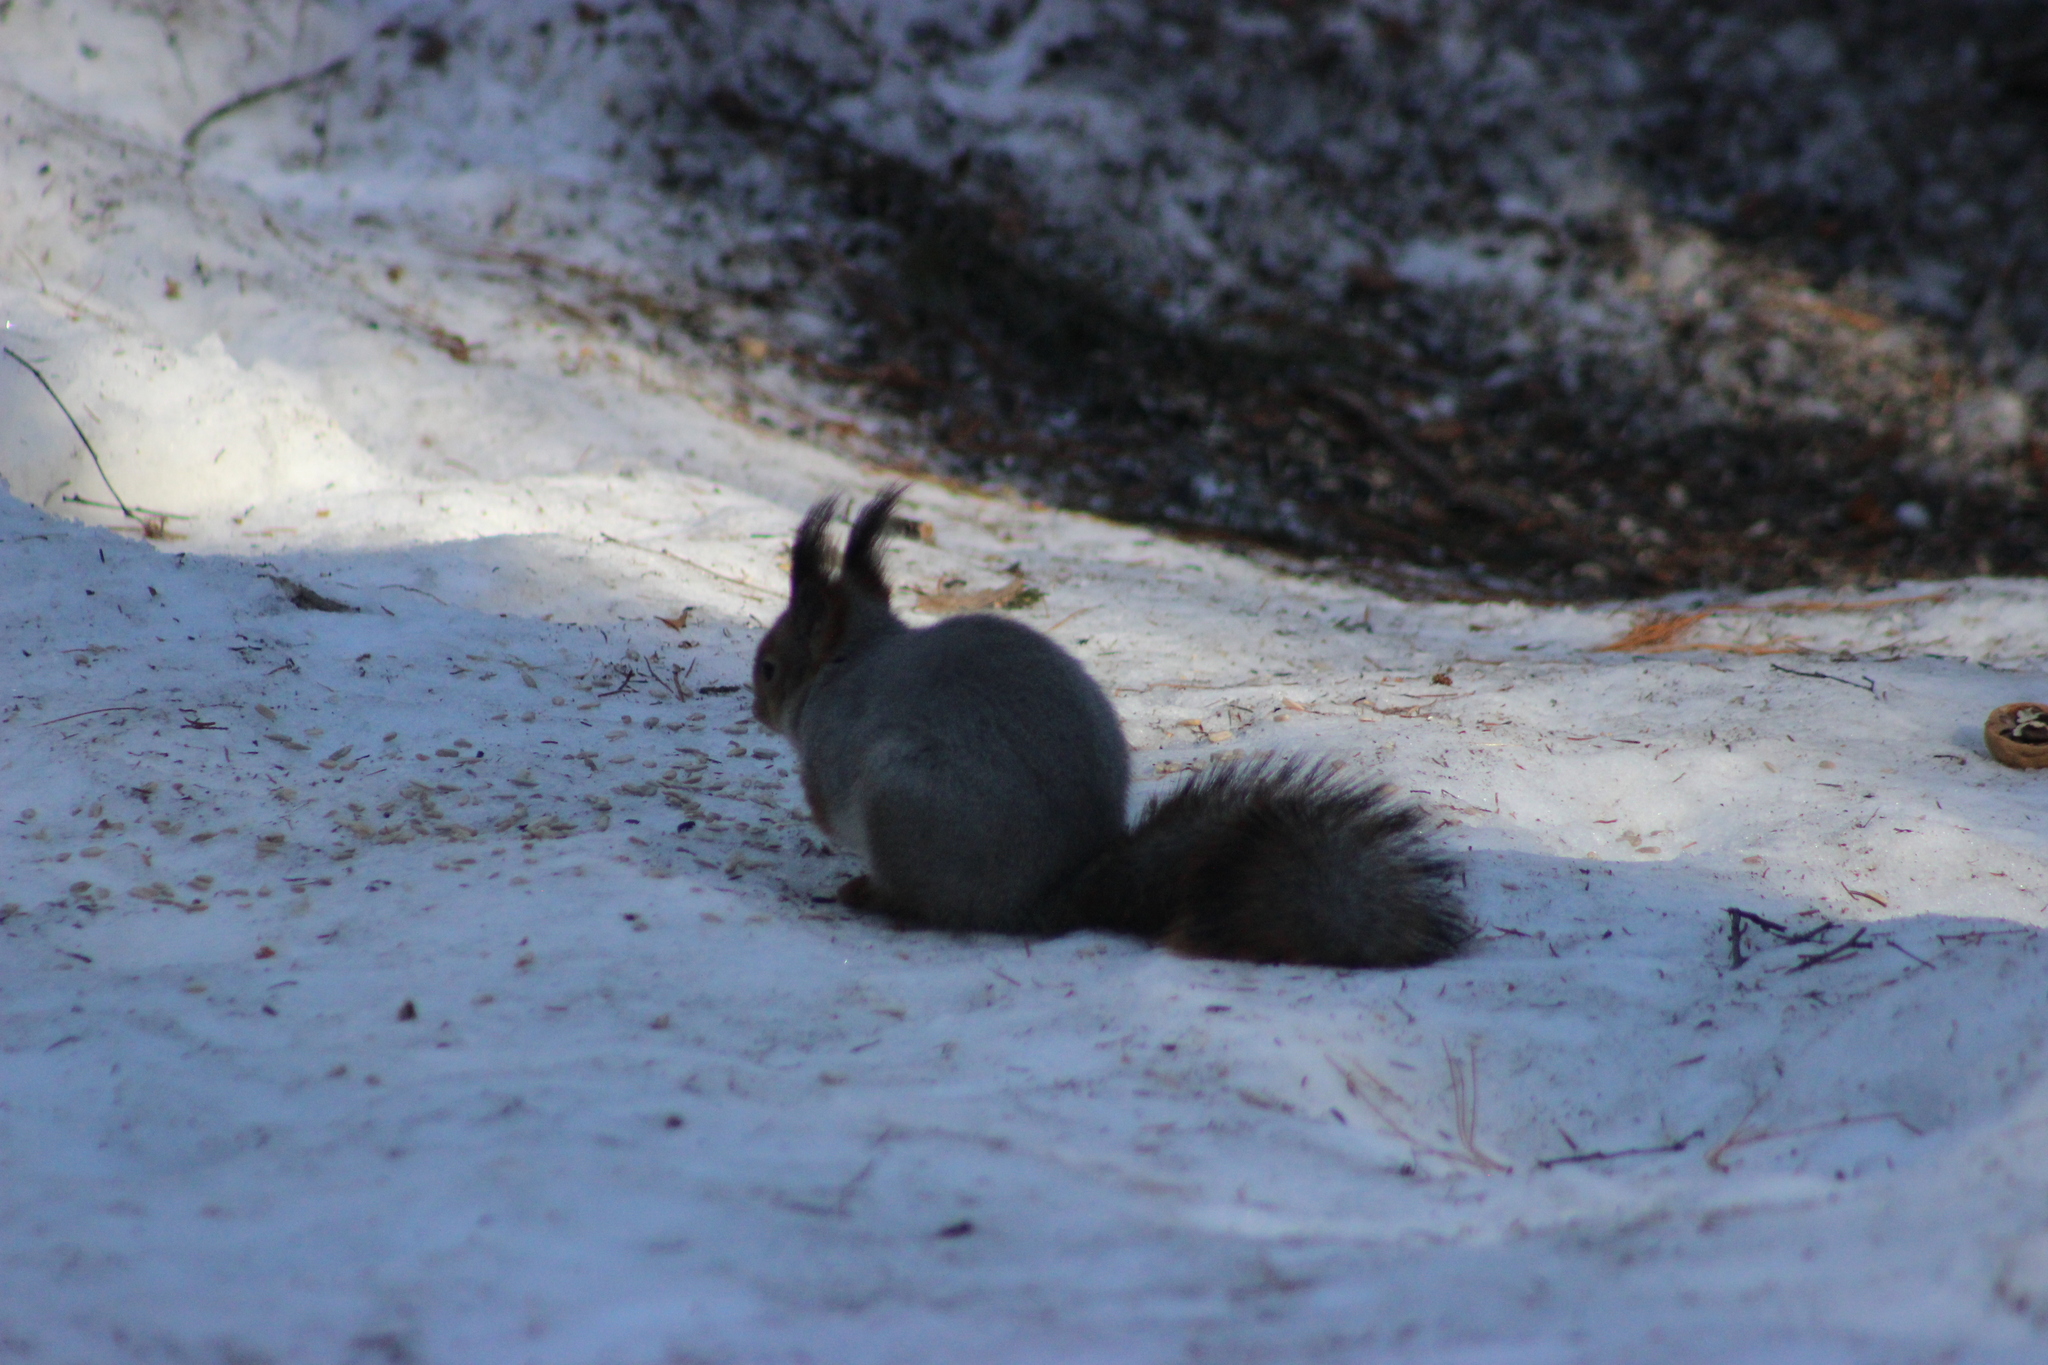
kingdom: Animalia
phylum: Chordata
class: Mammalia
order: Rodentia
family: Sciuridae
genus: Sciurus
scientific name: Sciurus vulgaris
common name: Eurasian red squirrel
